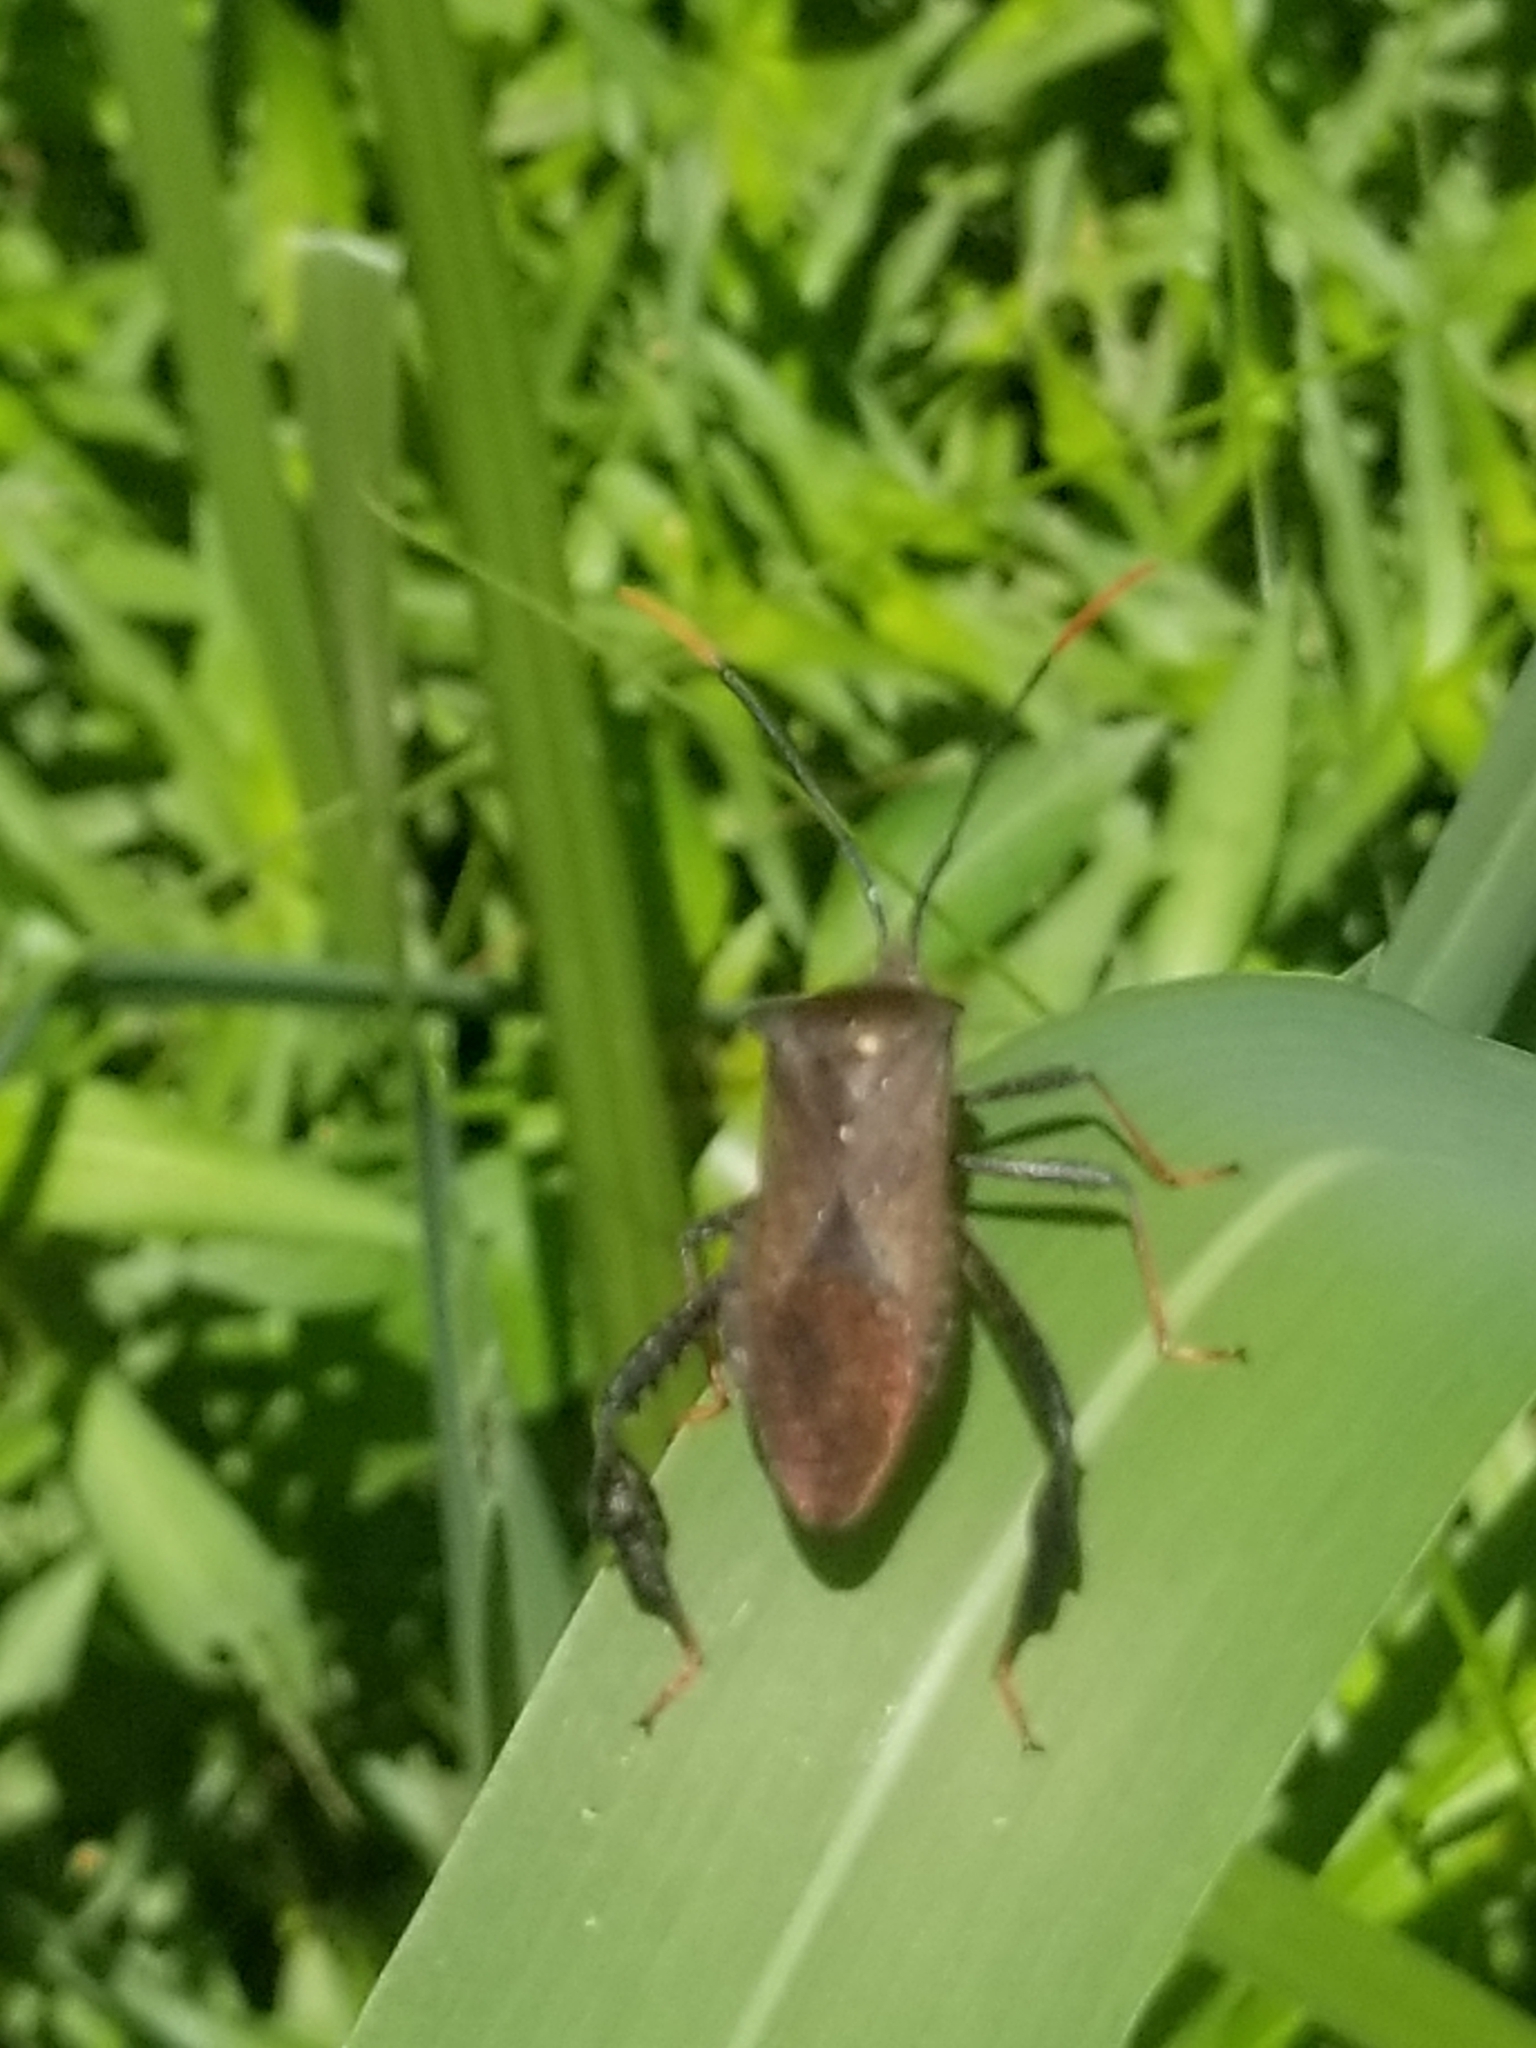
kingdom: Animalia
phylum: Arthropoda
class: Insecta
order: Hemiptera
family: Coreidae
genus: Acanthocephala
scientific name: Acanthocephala terminalis
